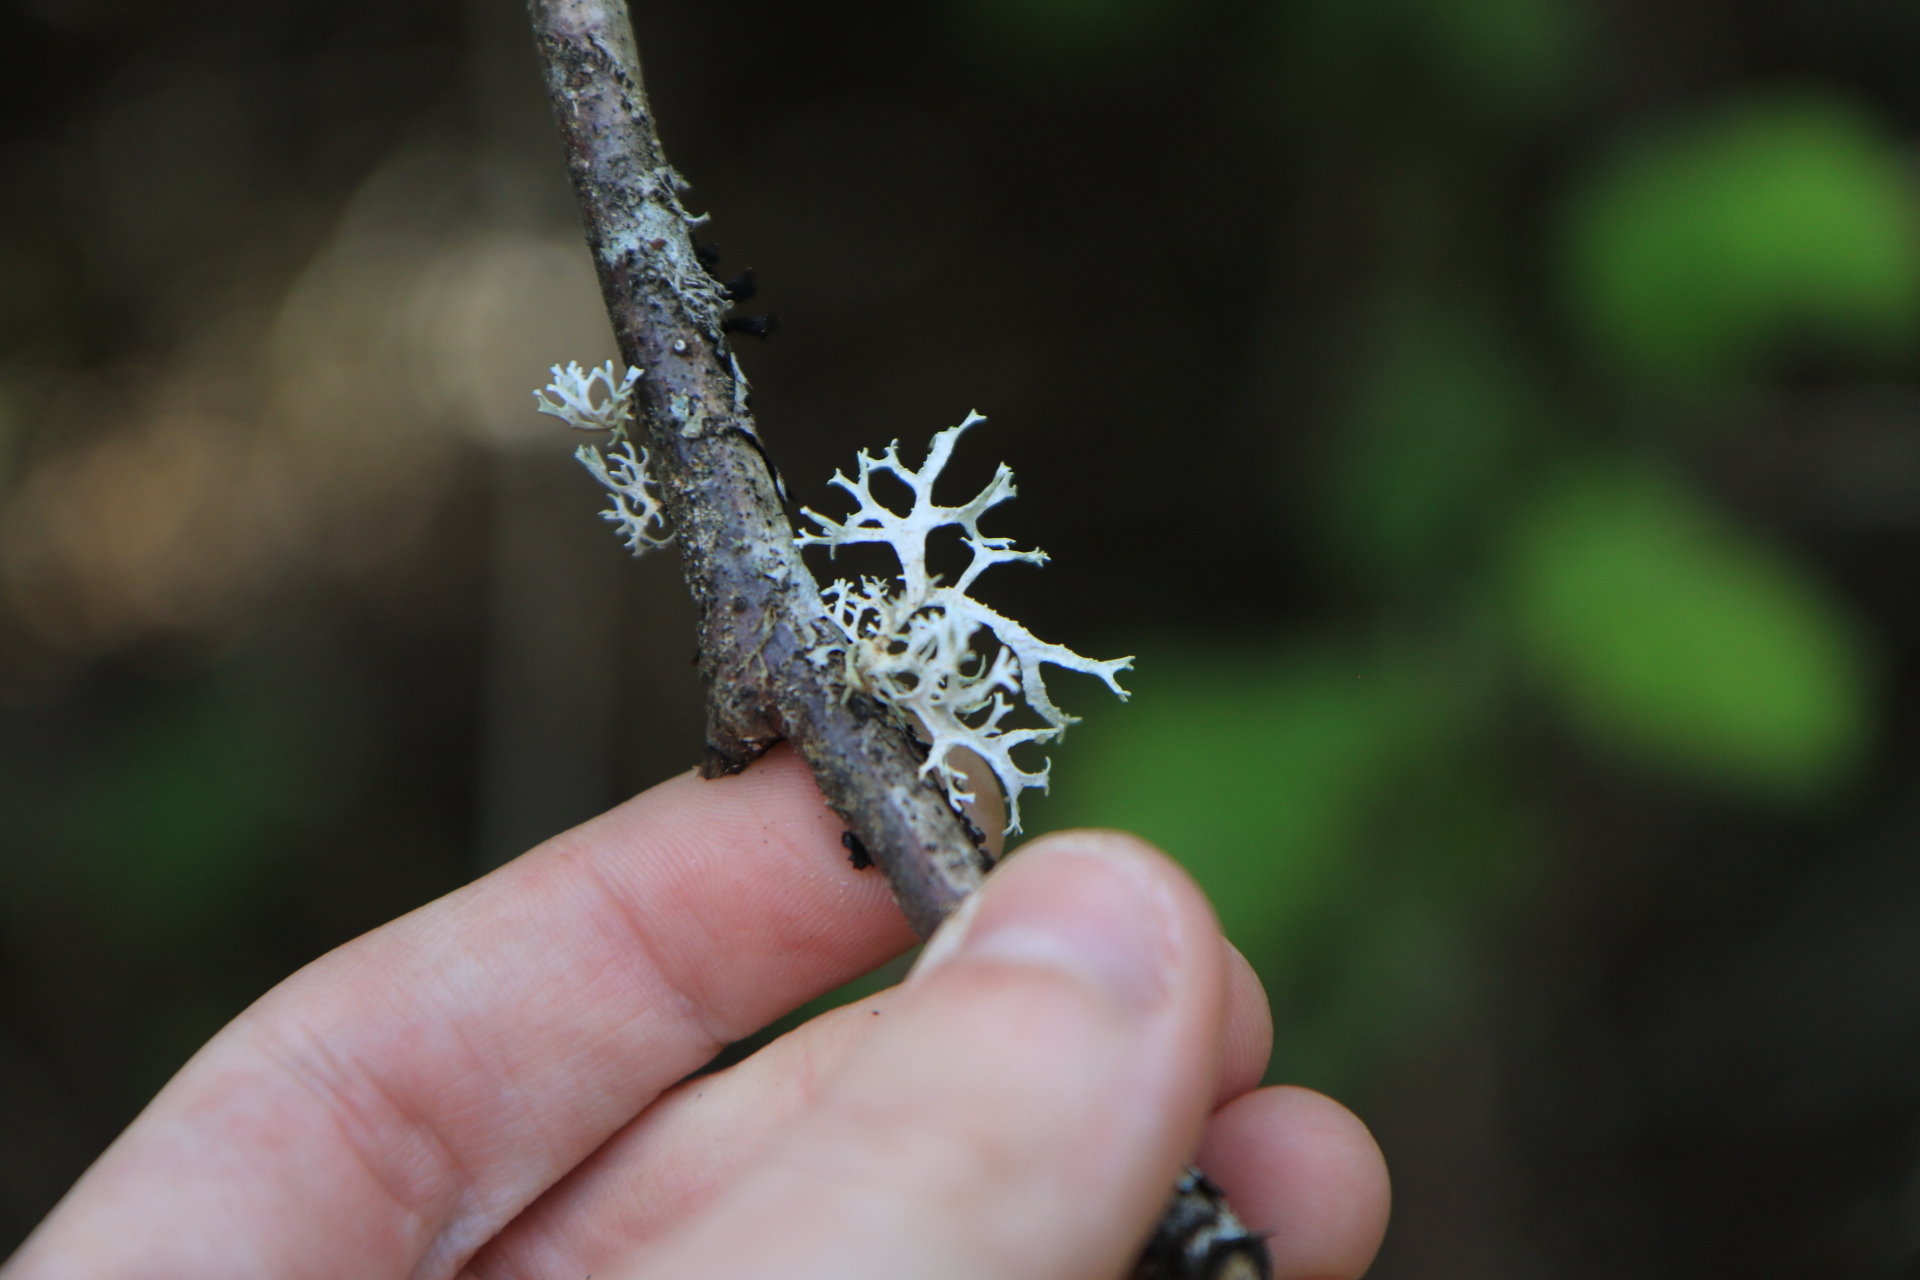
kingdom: Fungi
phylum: Ascomycota
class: Lecanoromycetes
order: Lecanorales
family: Parmeliaceae
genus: Evernia
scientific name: Evernia prunastri
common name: Oak moss
